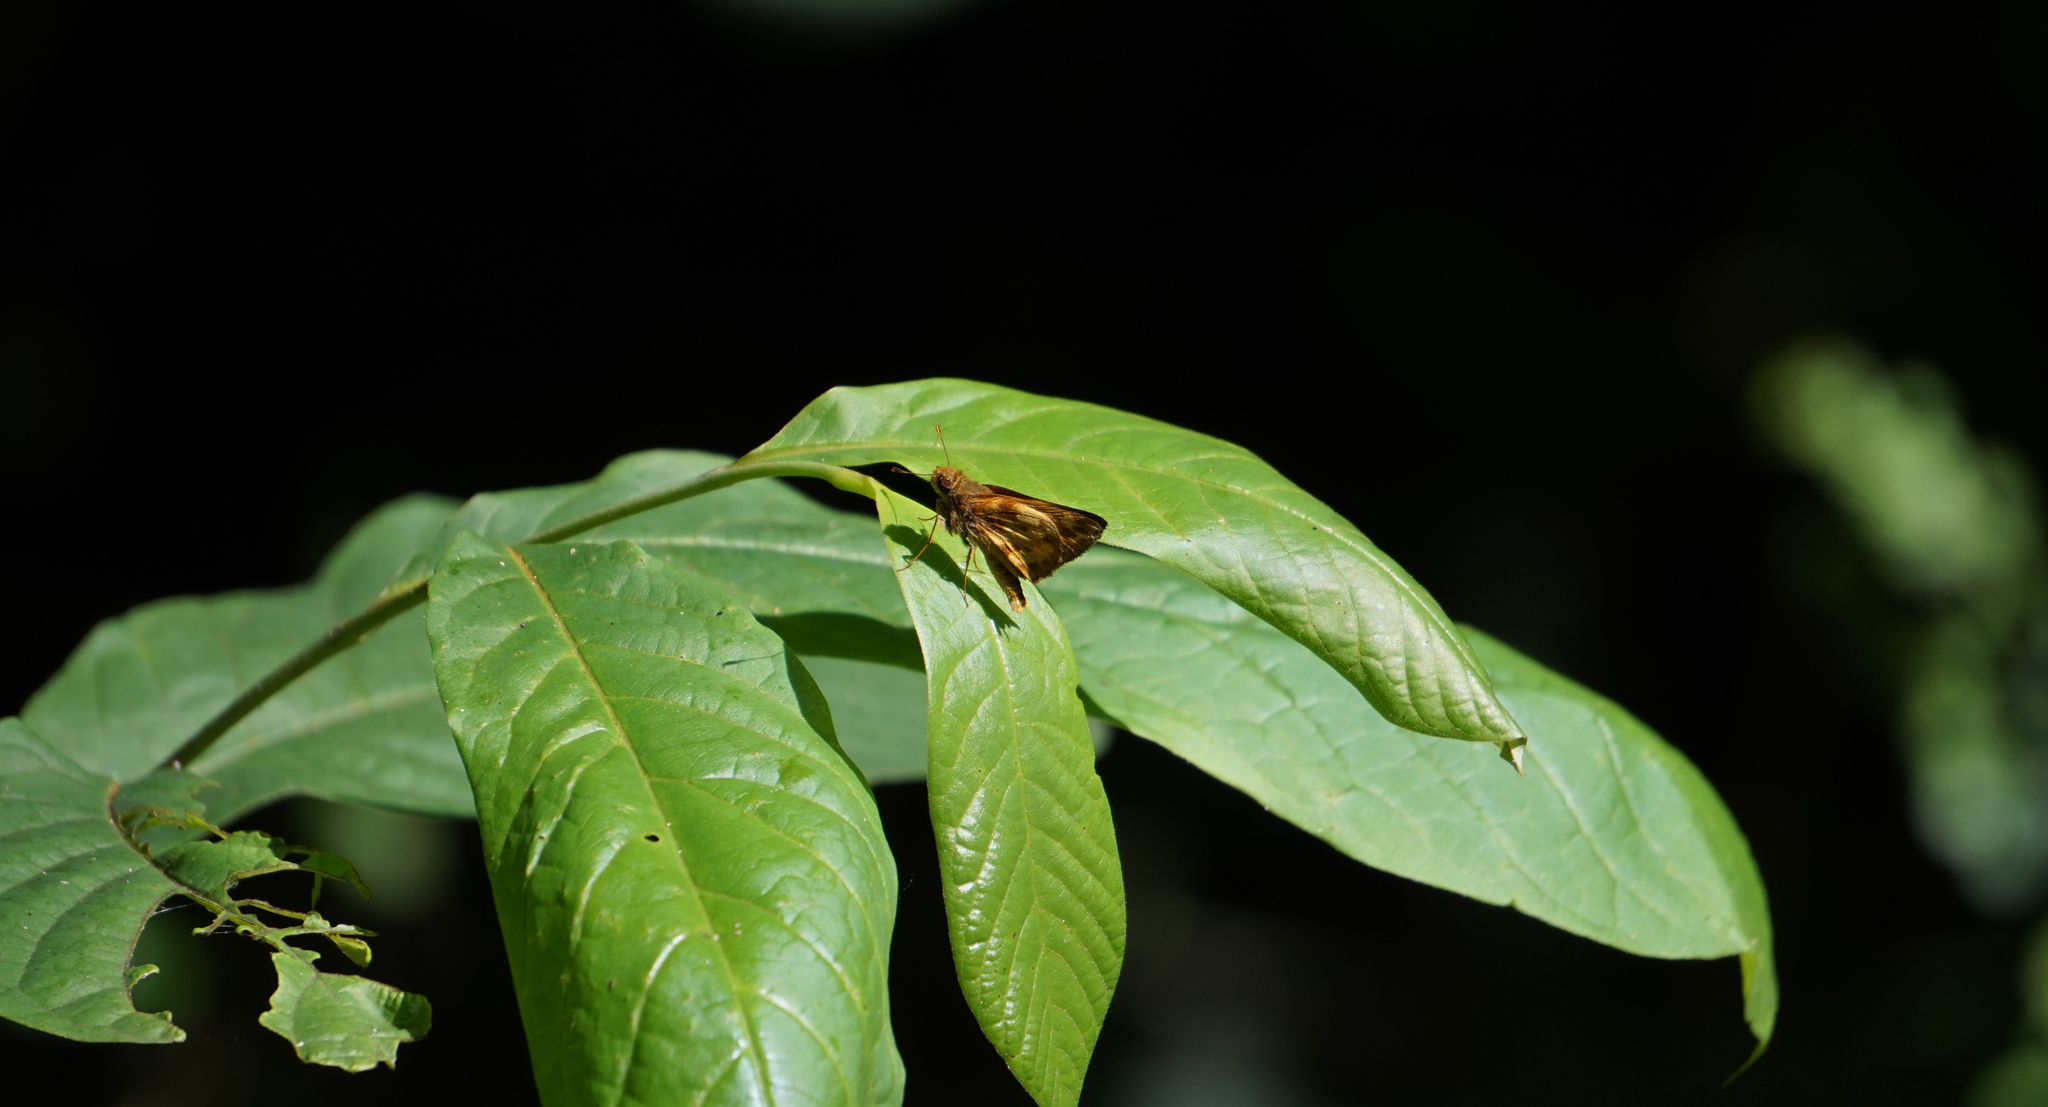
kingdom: Animalia
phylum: Arthropoda
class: Insecta
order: Lepidoptera
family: Hesperiidae
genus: Lon
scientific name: Lon zabulon
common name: Zabulon skipper
